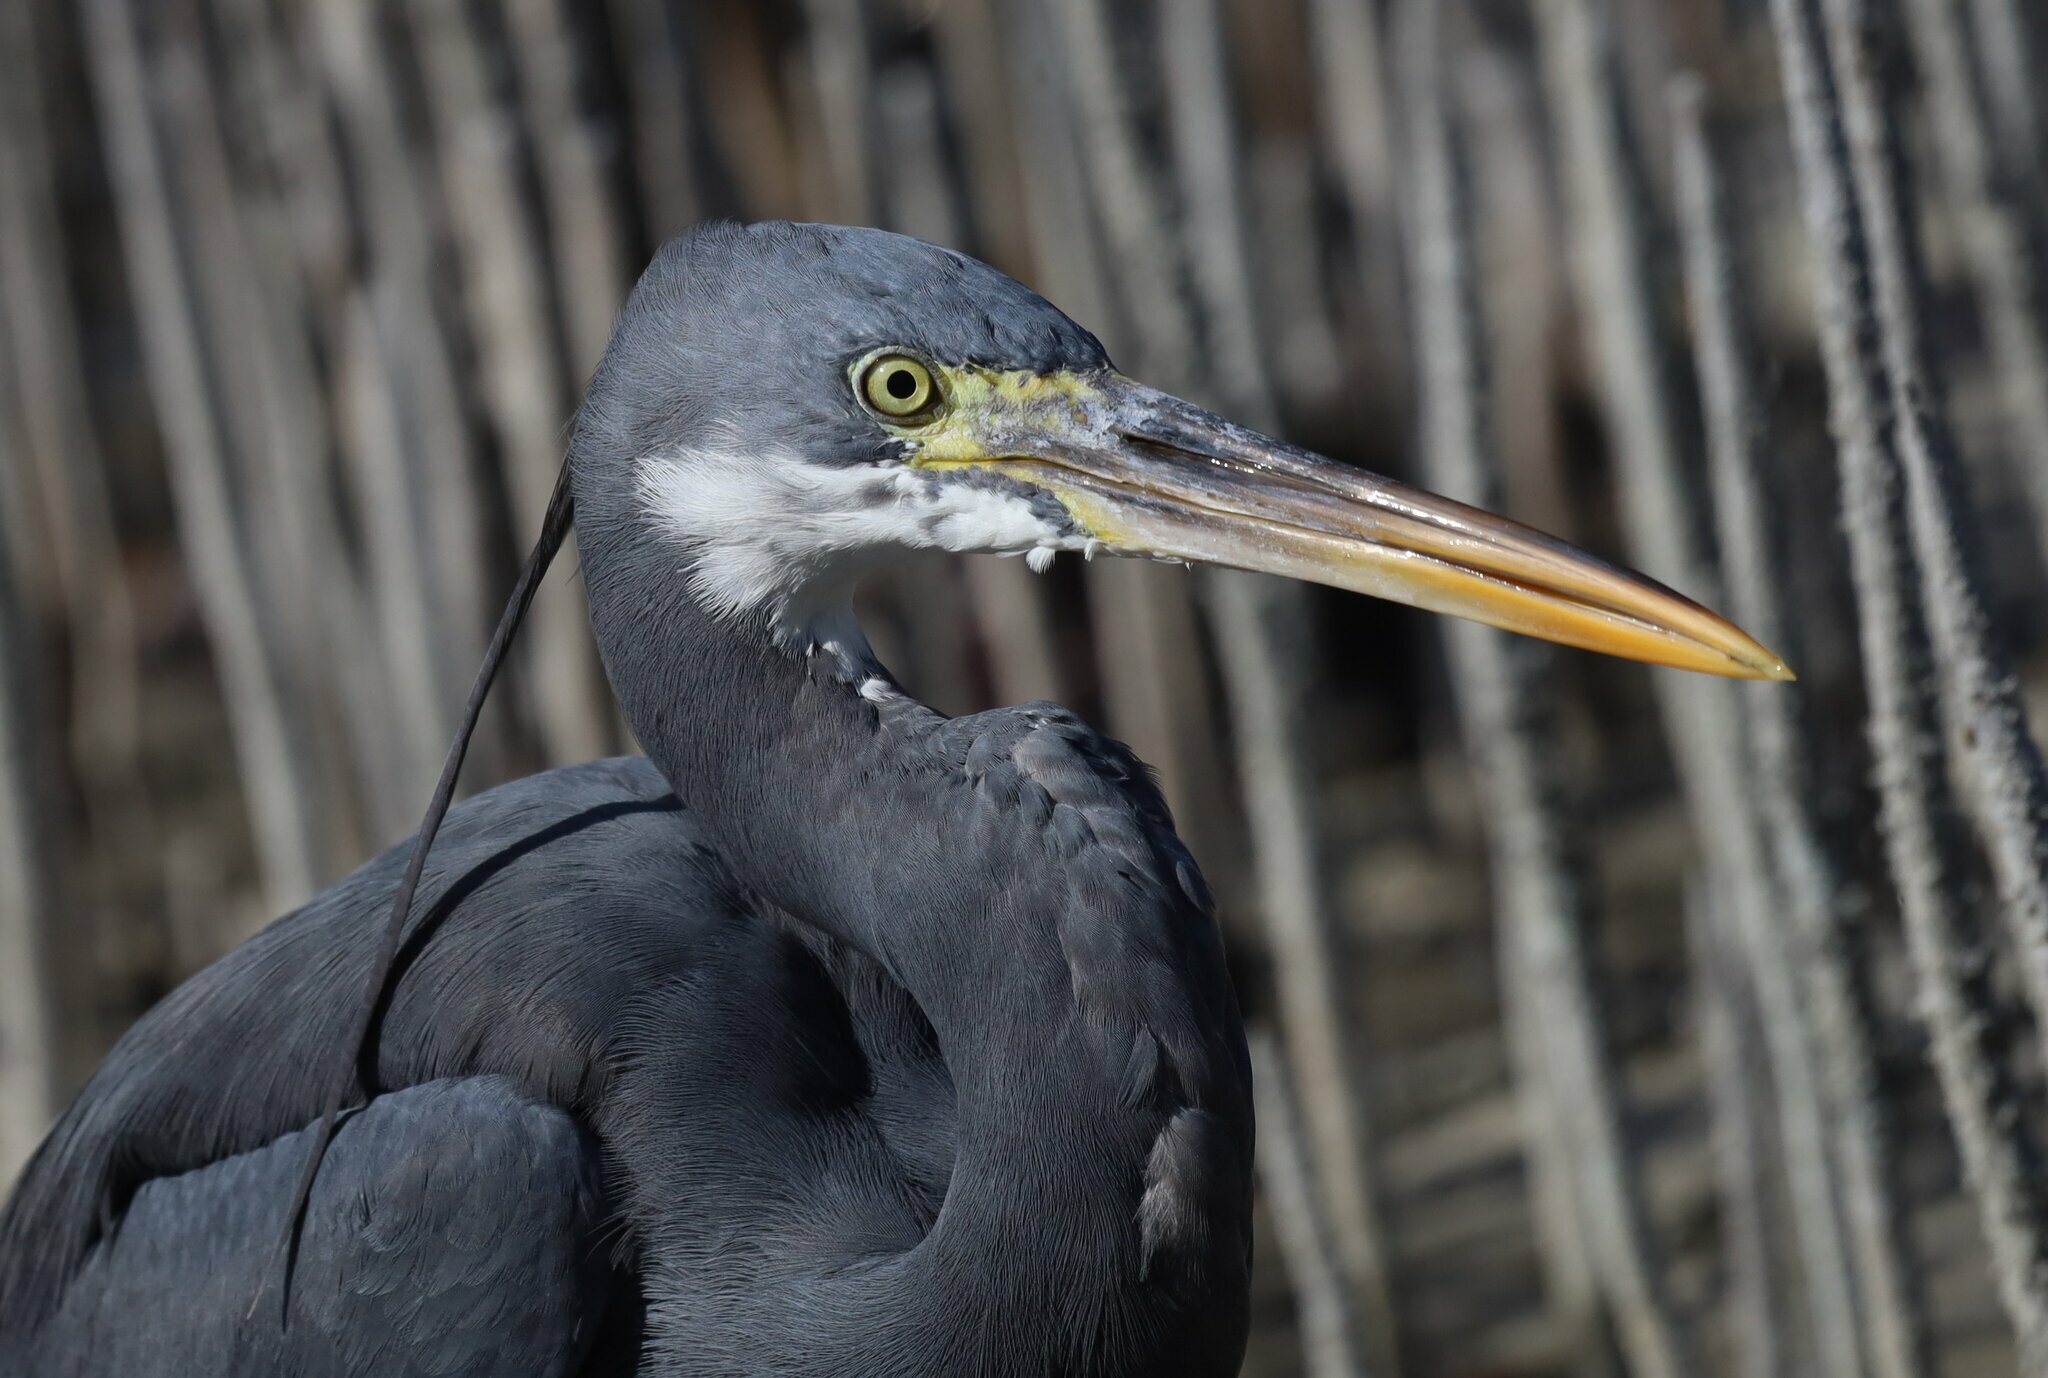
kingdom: Animalia
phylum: Chordata
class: Aves
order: Pelecaniformes
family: Ardeidae
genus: Egretta
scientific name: Egretta gularis
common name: Western reef-heron
